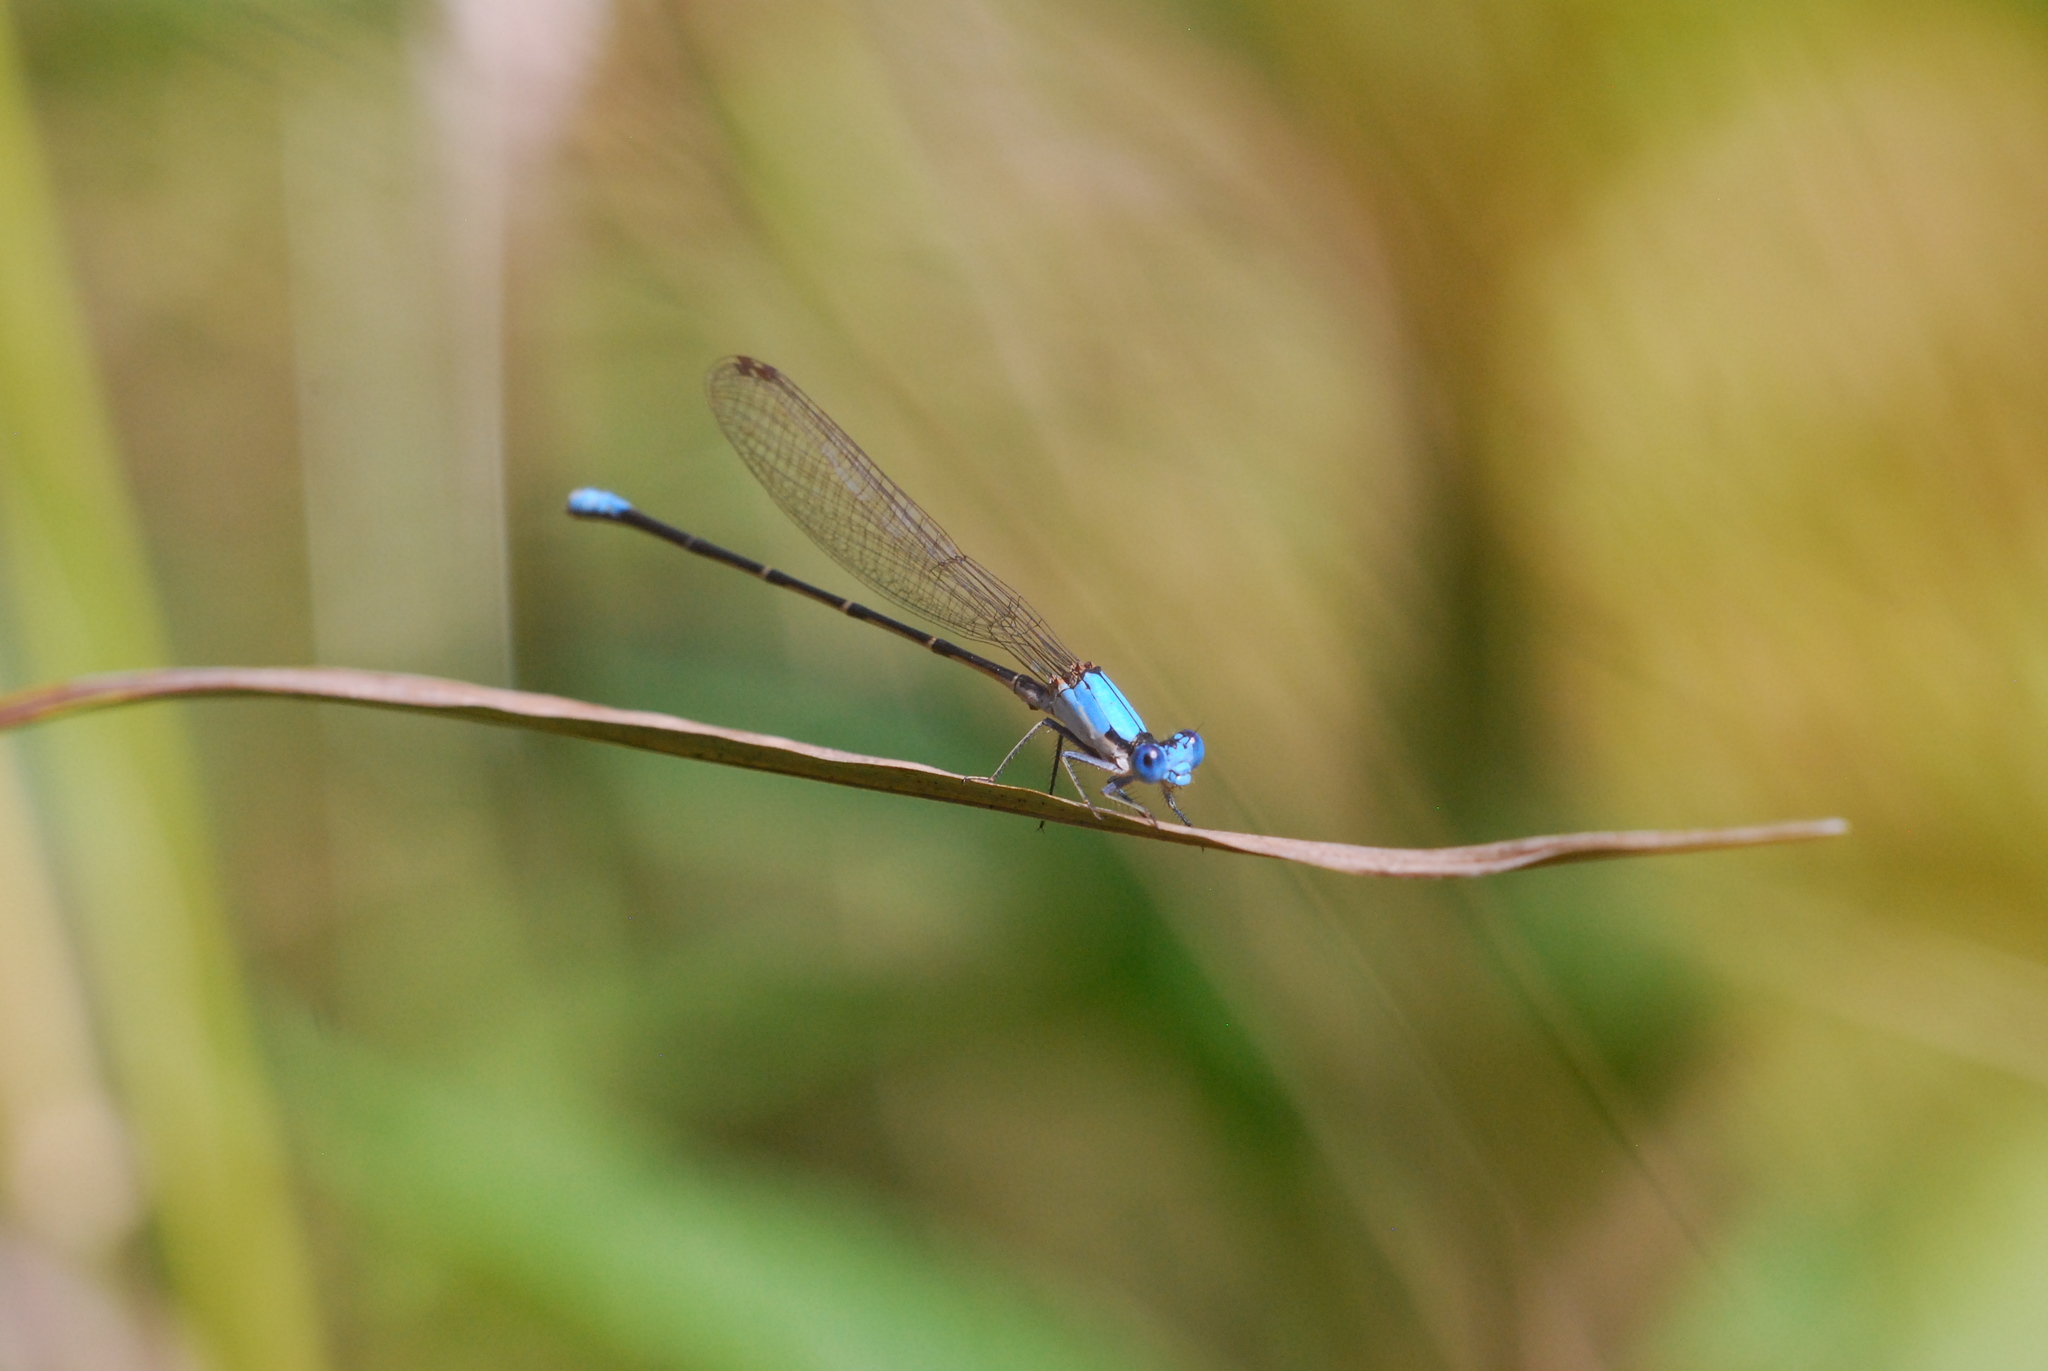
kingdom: Animalia
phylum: Arthropoda
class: Insecta
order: Odonata
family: Coenagrionidae
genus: Argia
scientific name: Argia apicalis
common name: Blue-fronted dancer
